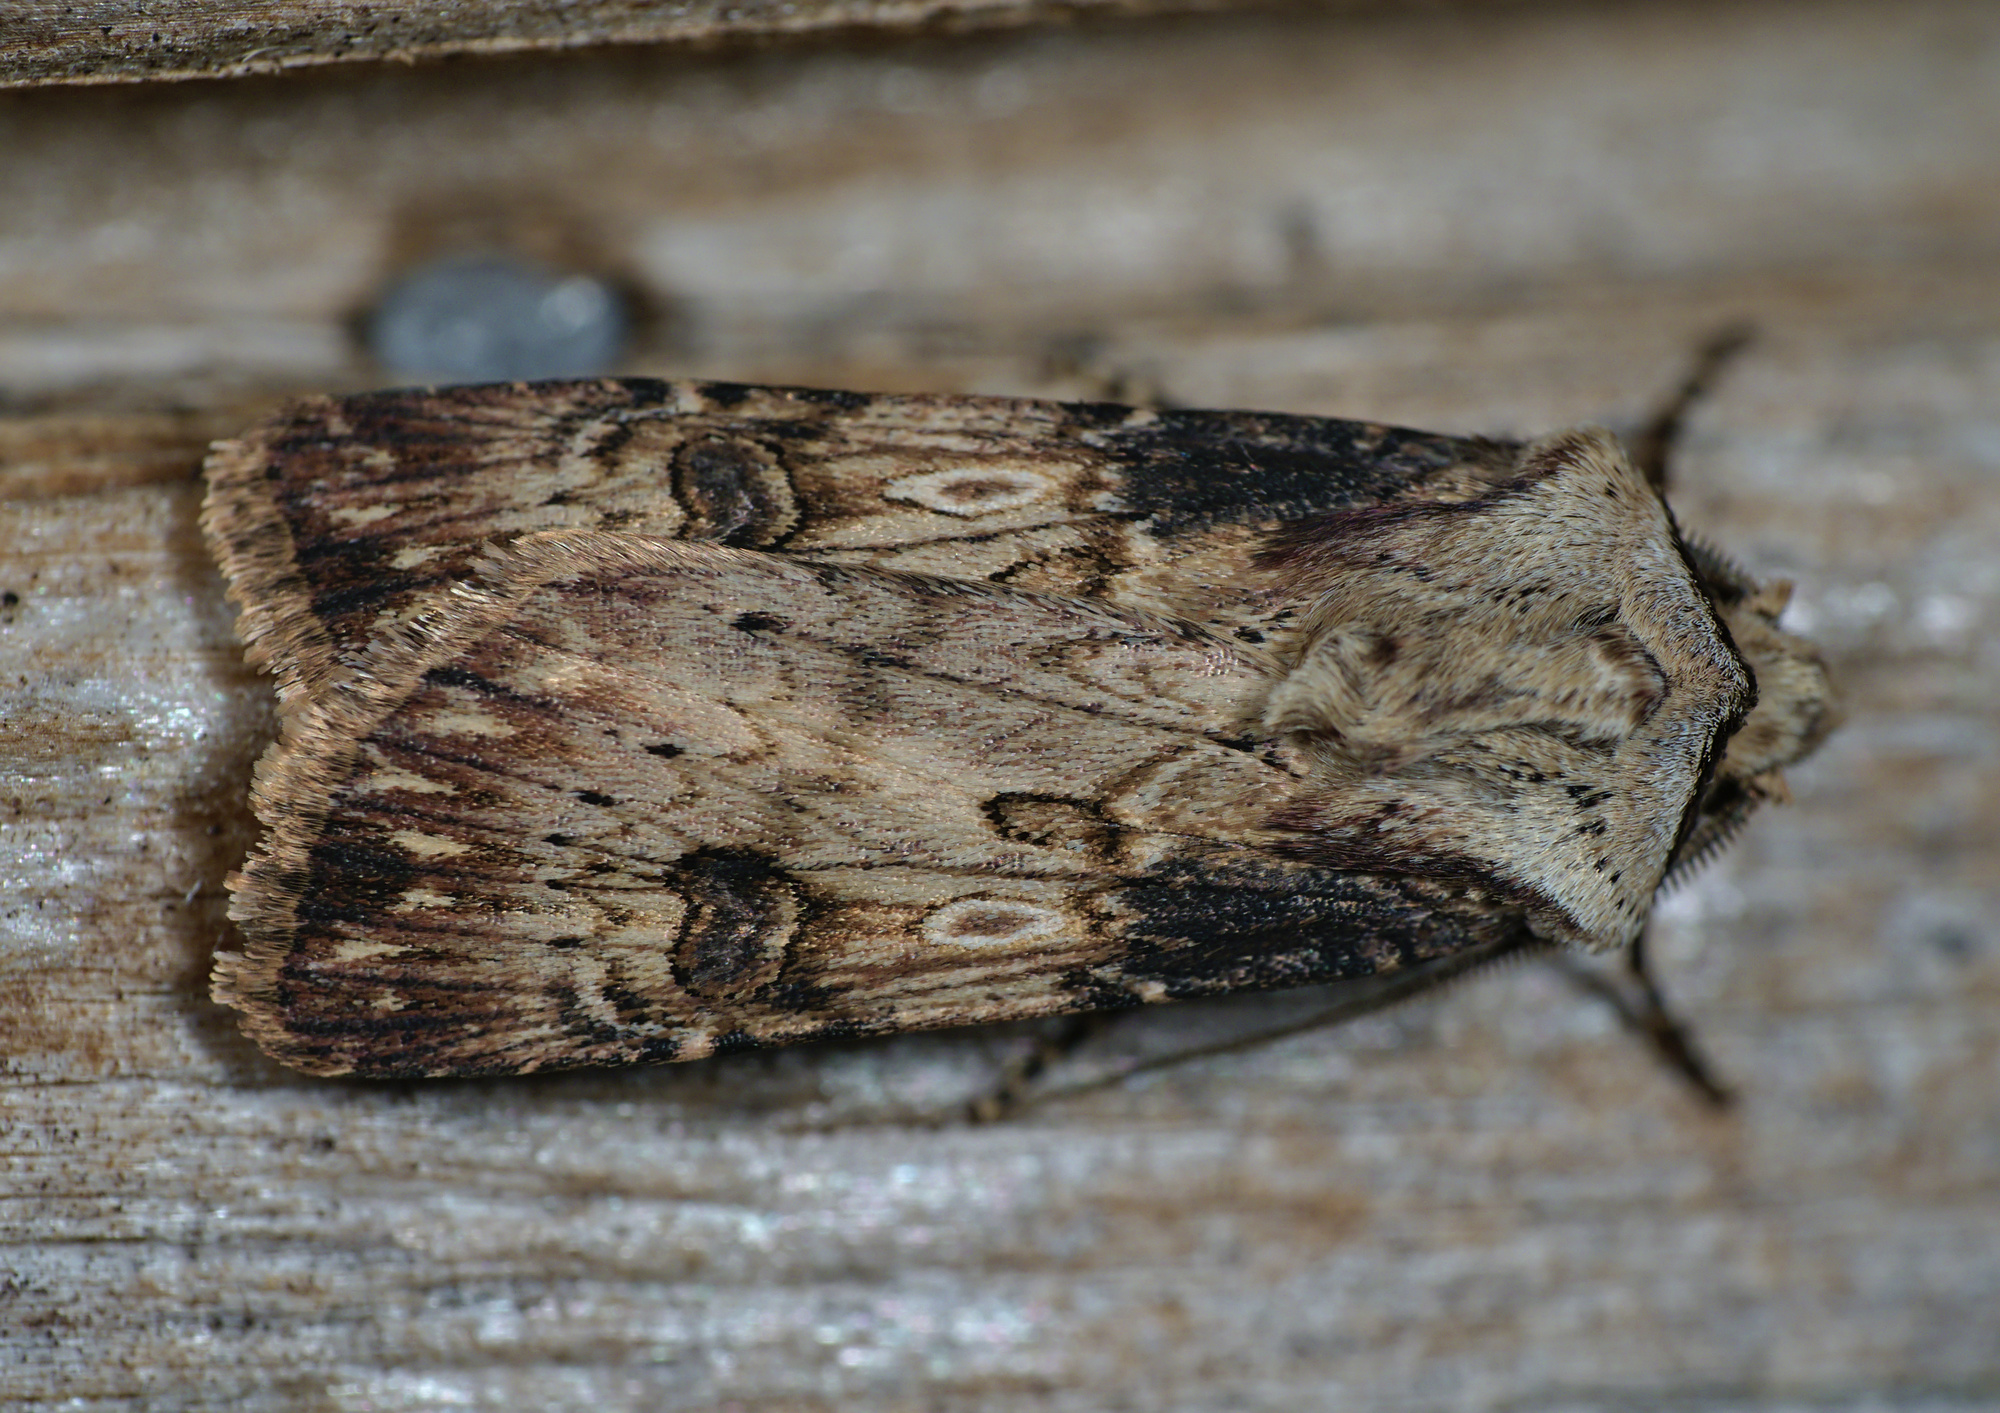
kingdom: Animalia
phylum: Arthropoda
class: Insecta
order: Lepidoptera
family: Noctuidae
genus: Agrotis
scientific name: Agrotis puta
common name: Shuttle-shaped dart
